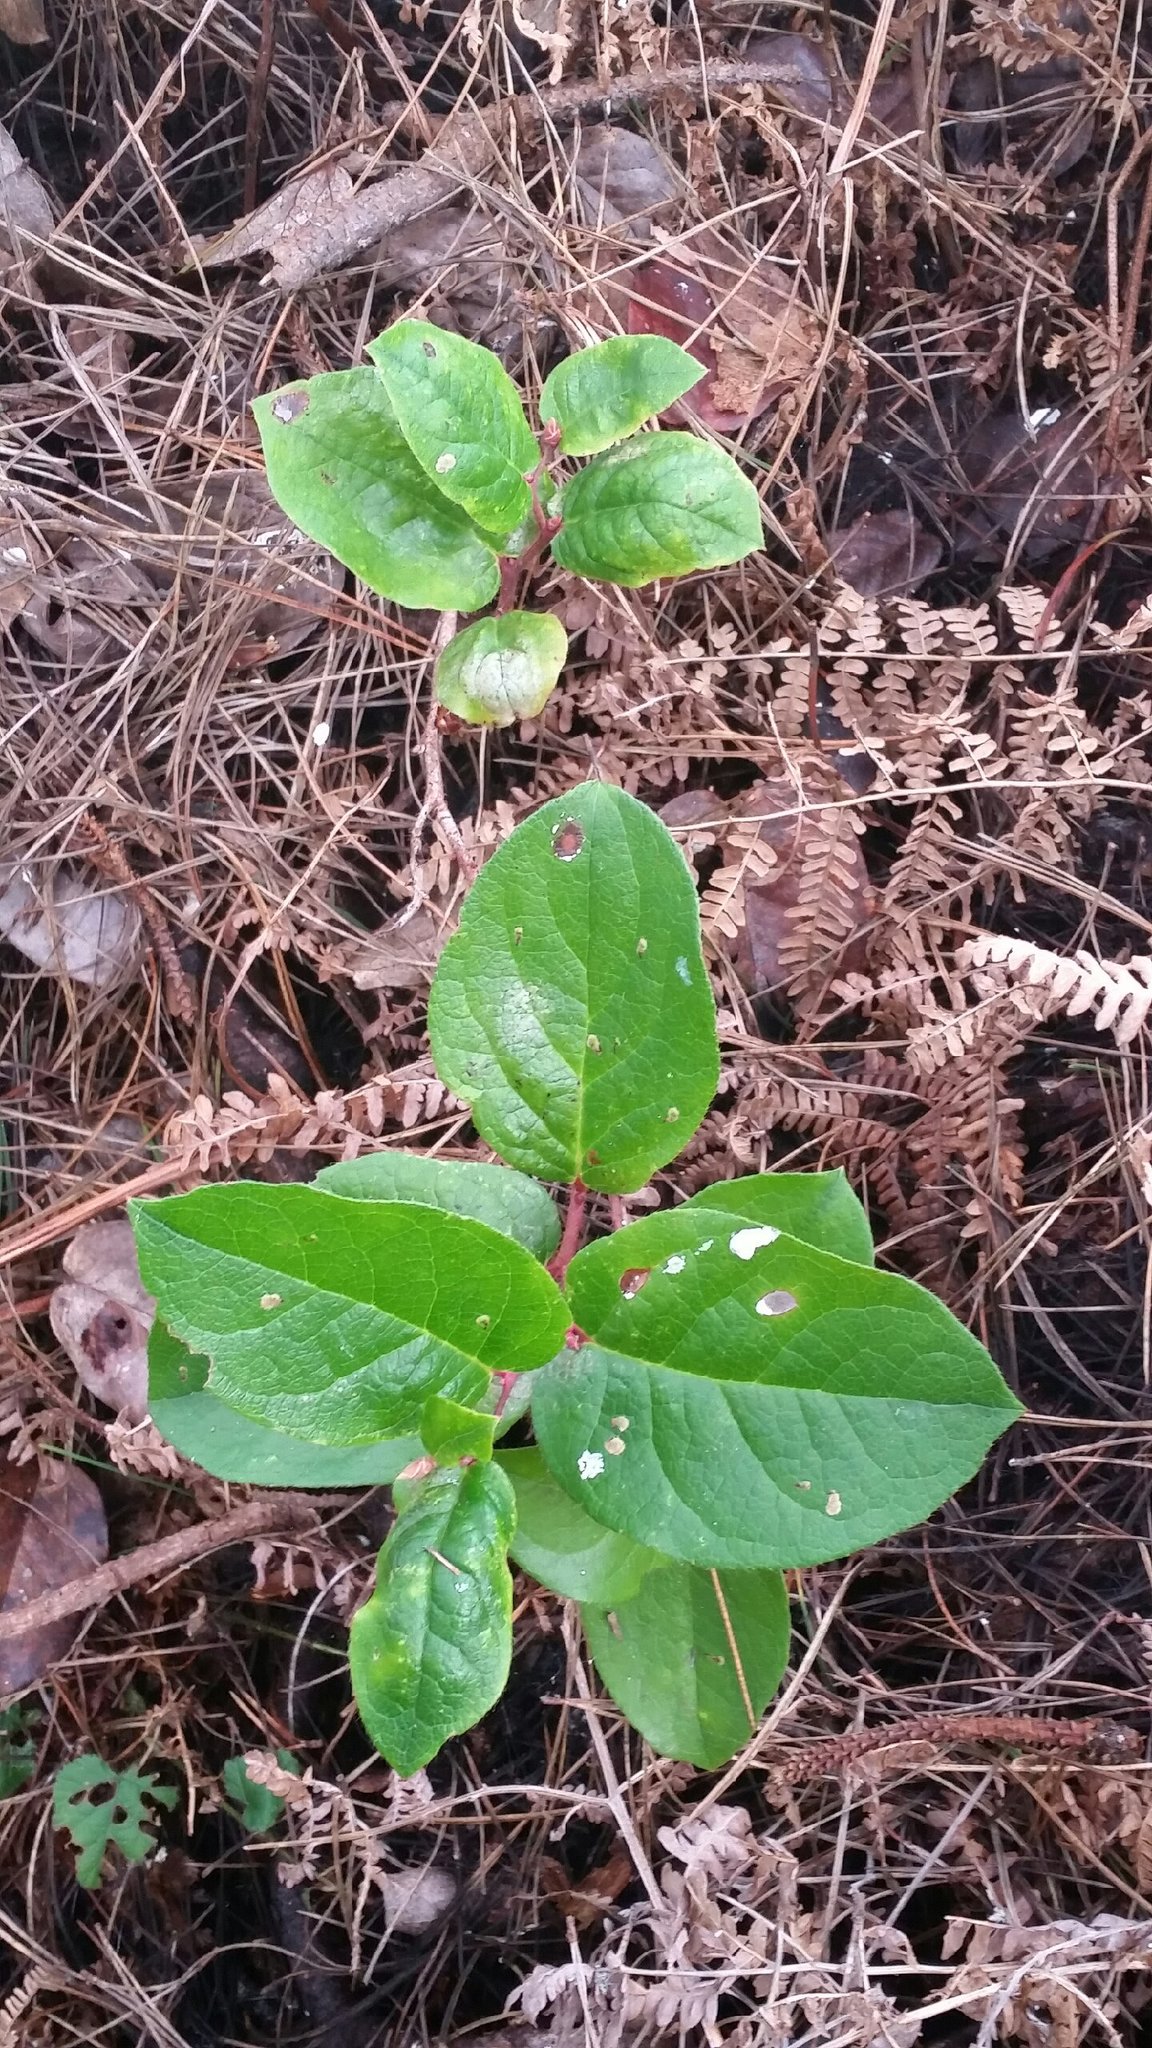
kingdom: Plantae
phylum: Tracheophyta
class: Magnoliopsida
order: Ericales
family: Ericaceae
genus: Gaultheria
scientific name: Gaultheria shallon
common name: Shallon
